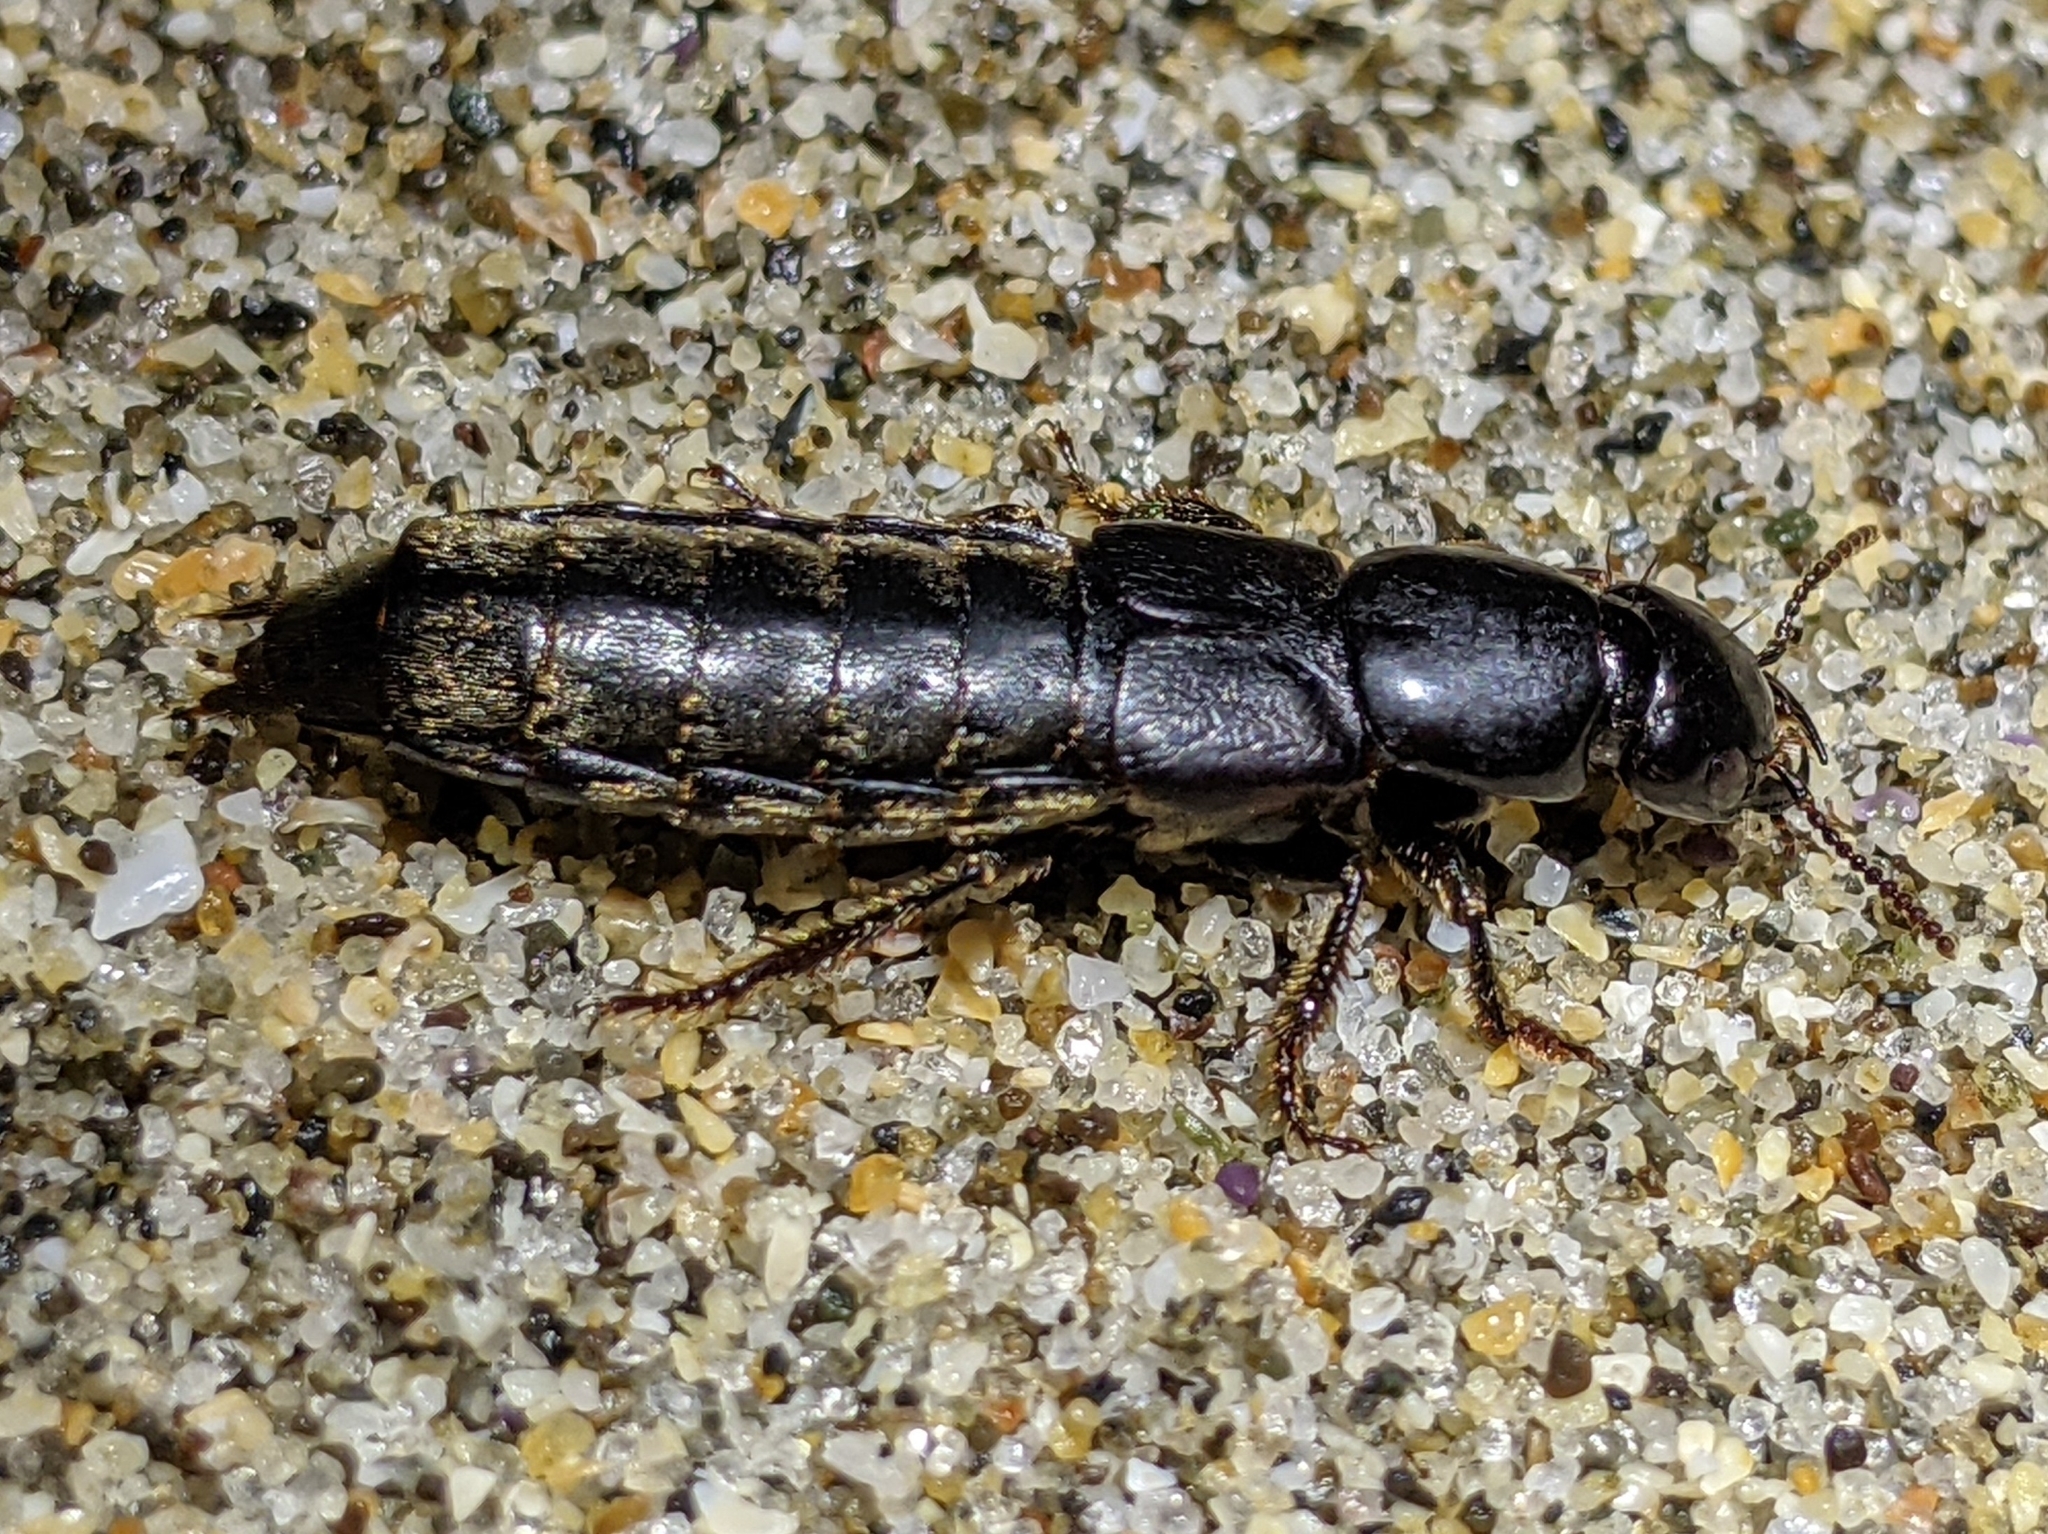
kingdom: Animalia
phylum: Arthropoda
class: Insecta
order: Coleoptera
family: Staphylinidae
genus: Hadrotes
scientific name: Hadrotes crassus
